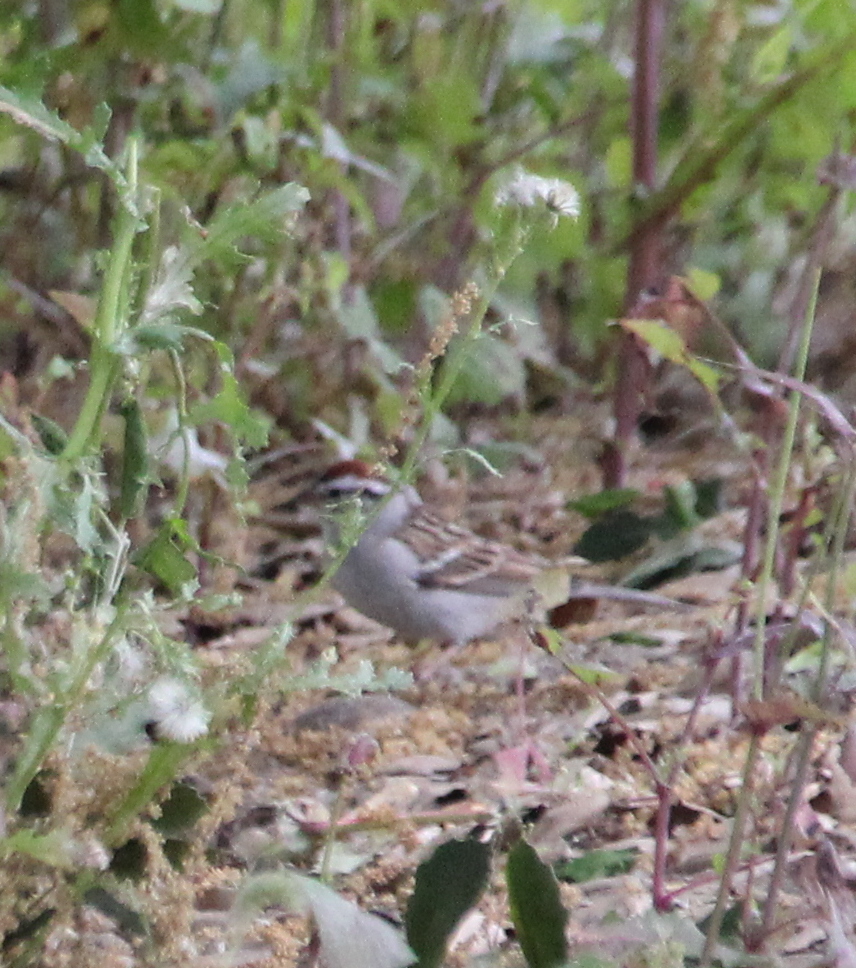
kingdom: Animalia
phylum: Chordata
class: Aves
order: Passeriformes
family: Passerellidae
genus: Spizella
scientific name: Spizella passerina
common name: Chipping sparrow
